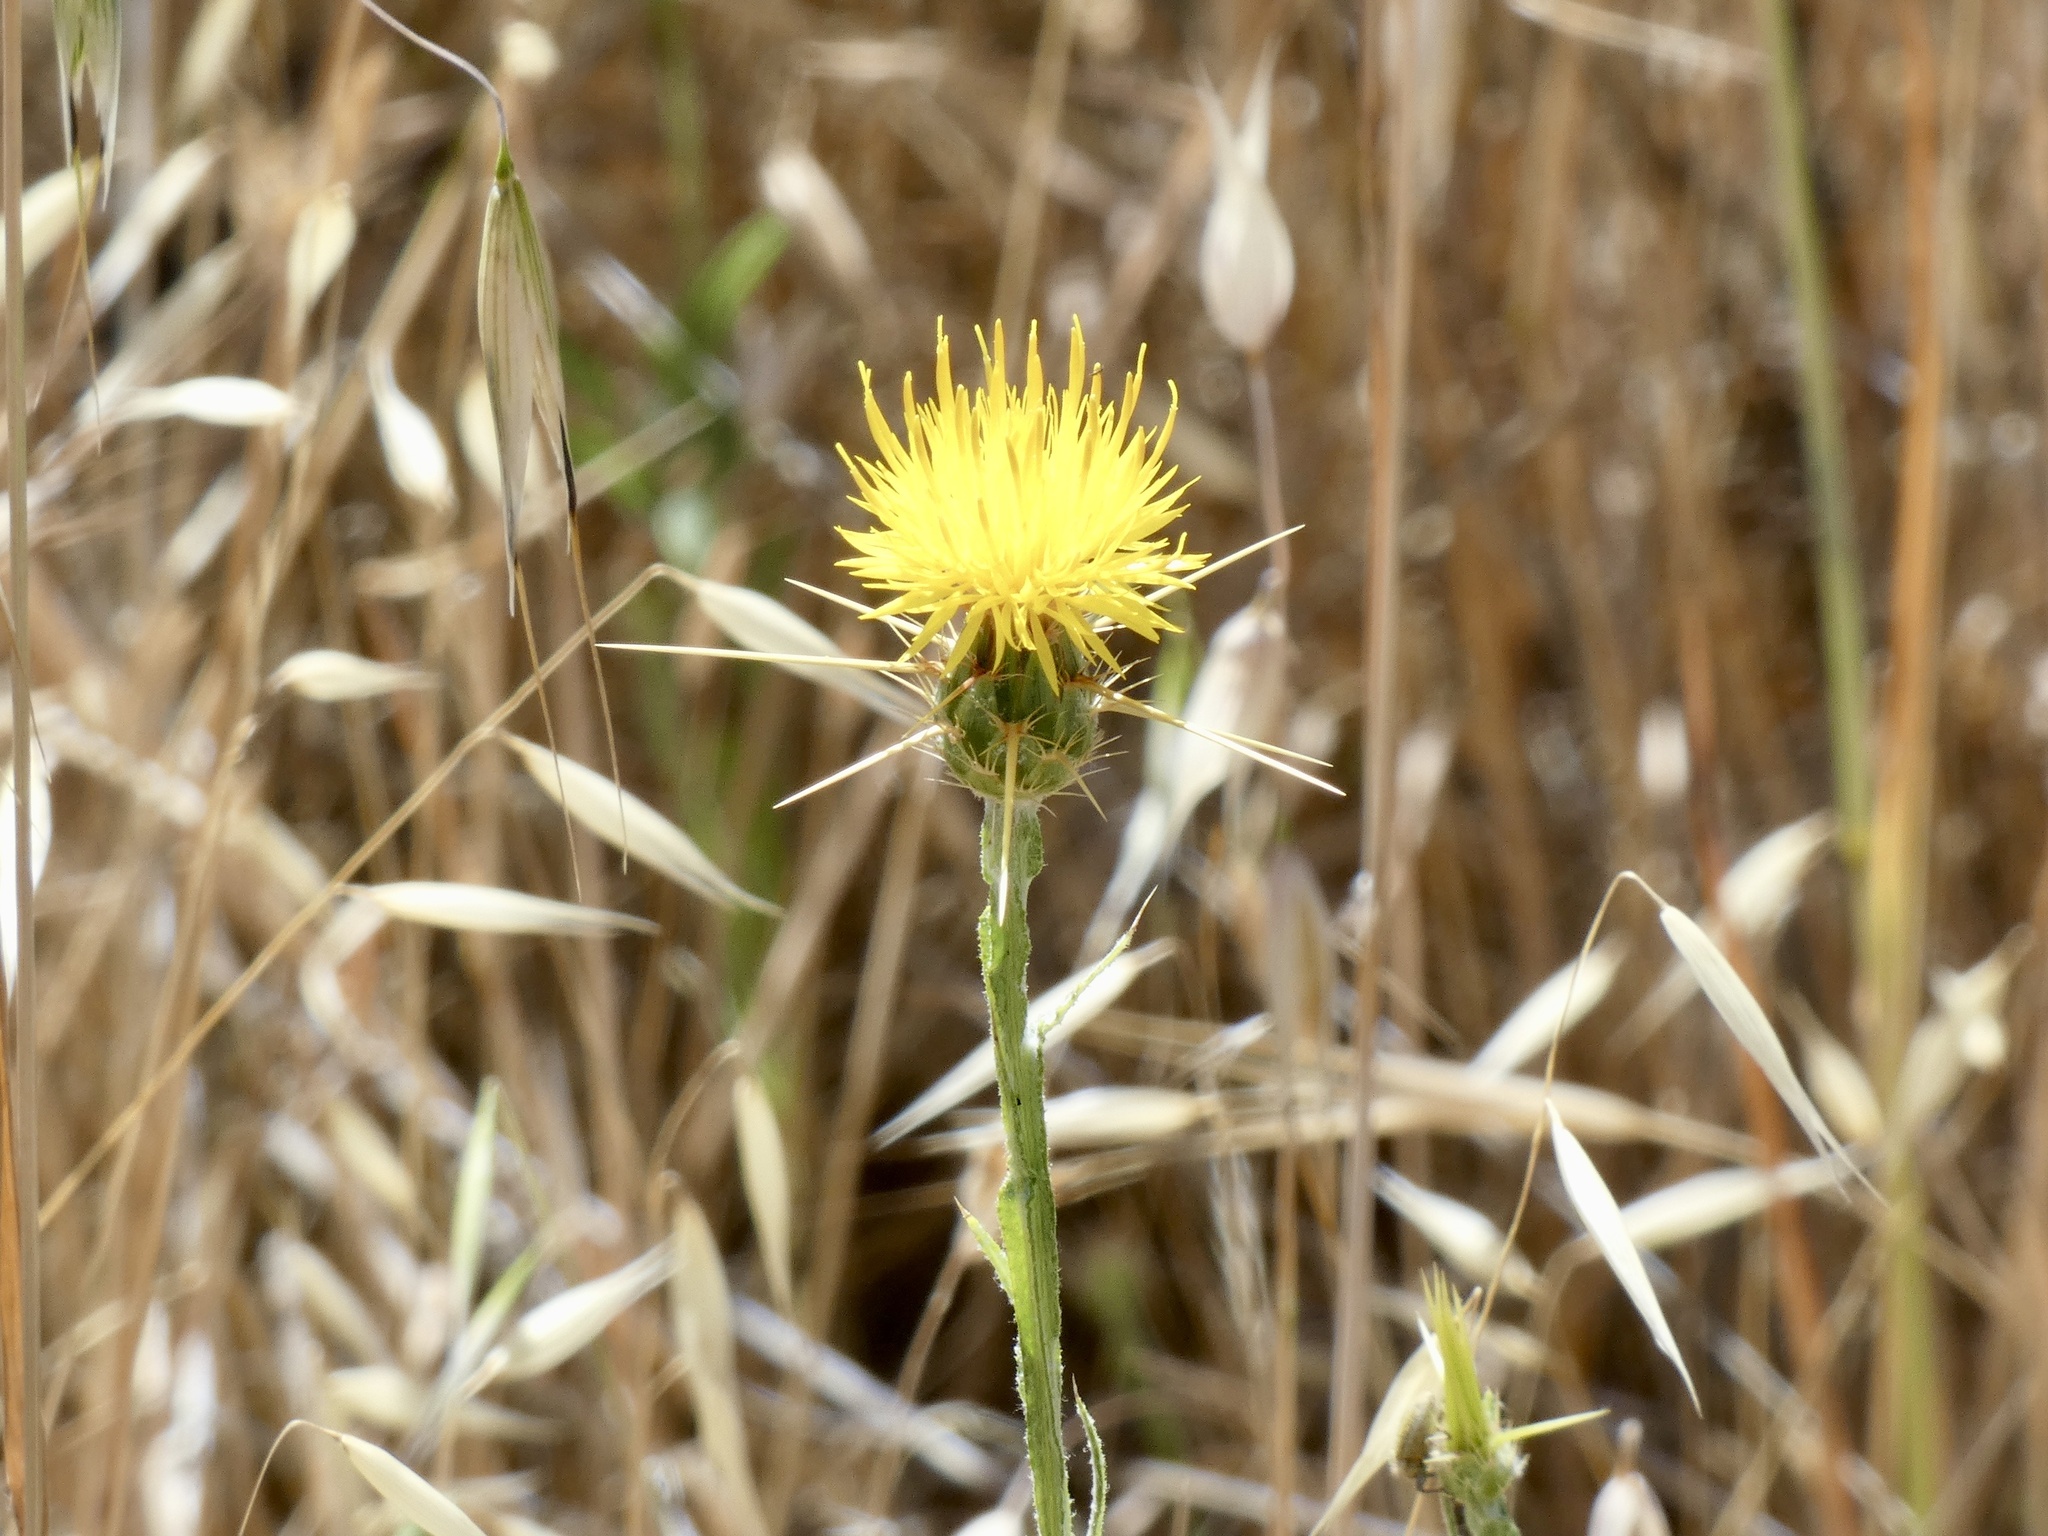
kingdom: Plantae
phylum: Tracheophyta
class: Magnoliopsida
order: Asterales
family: Asteraceae
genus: Centaurea
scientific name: Centaurea solstitialis
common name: Yellow star-thistle
